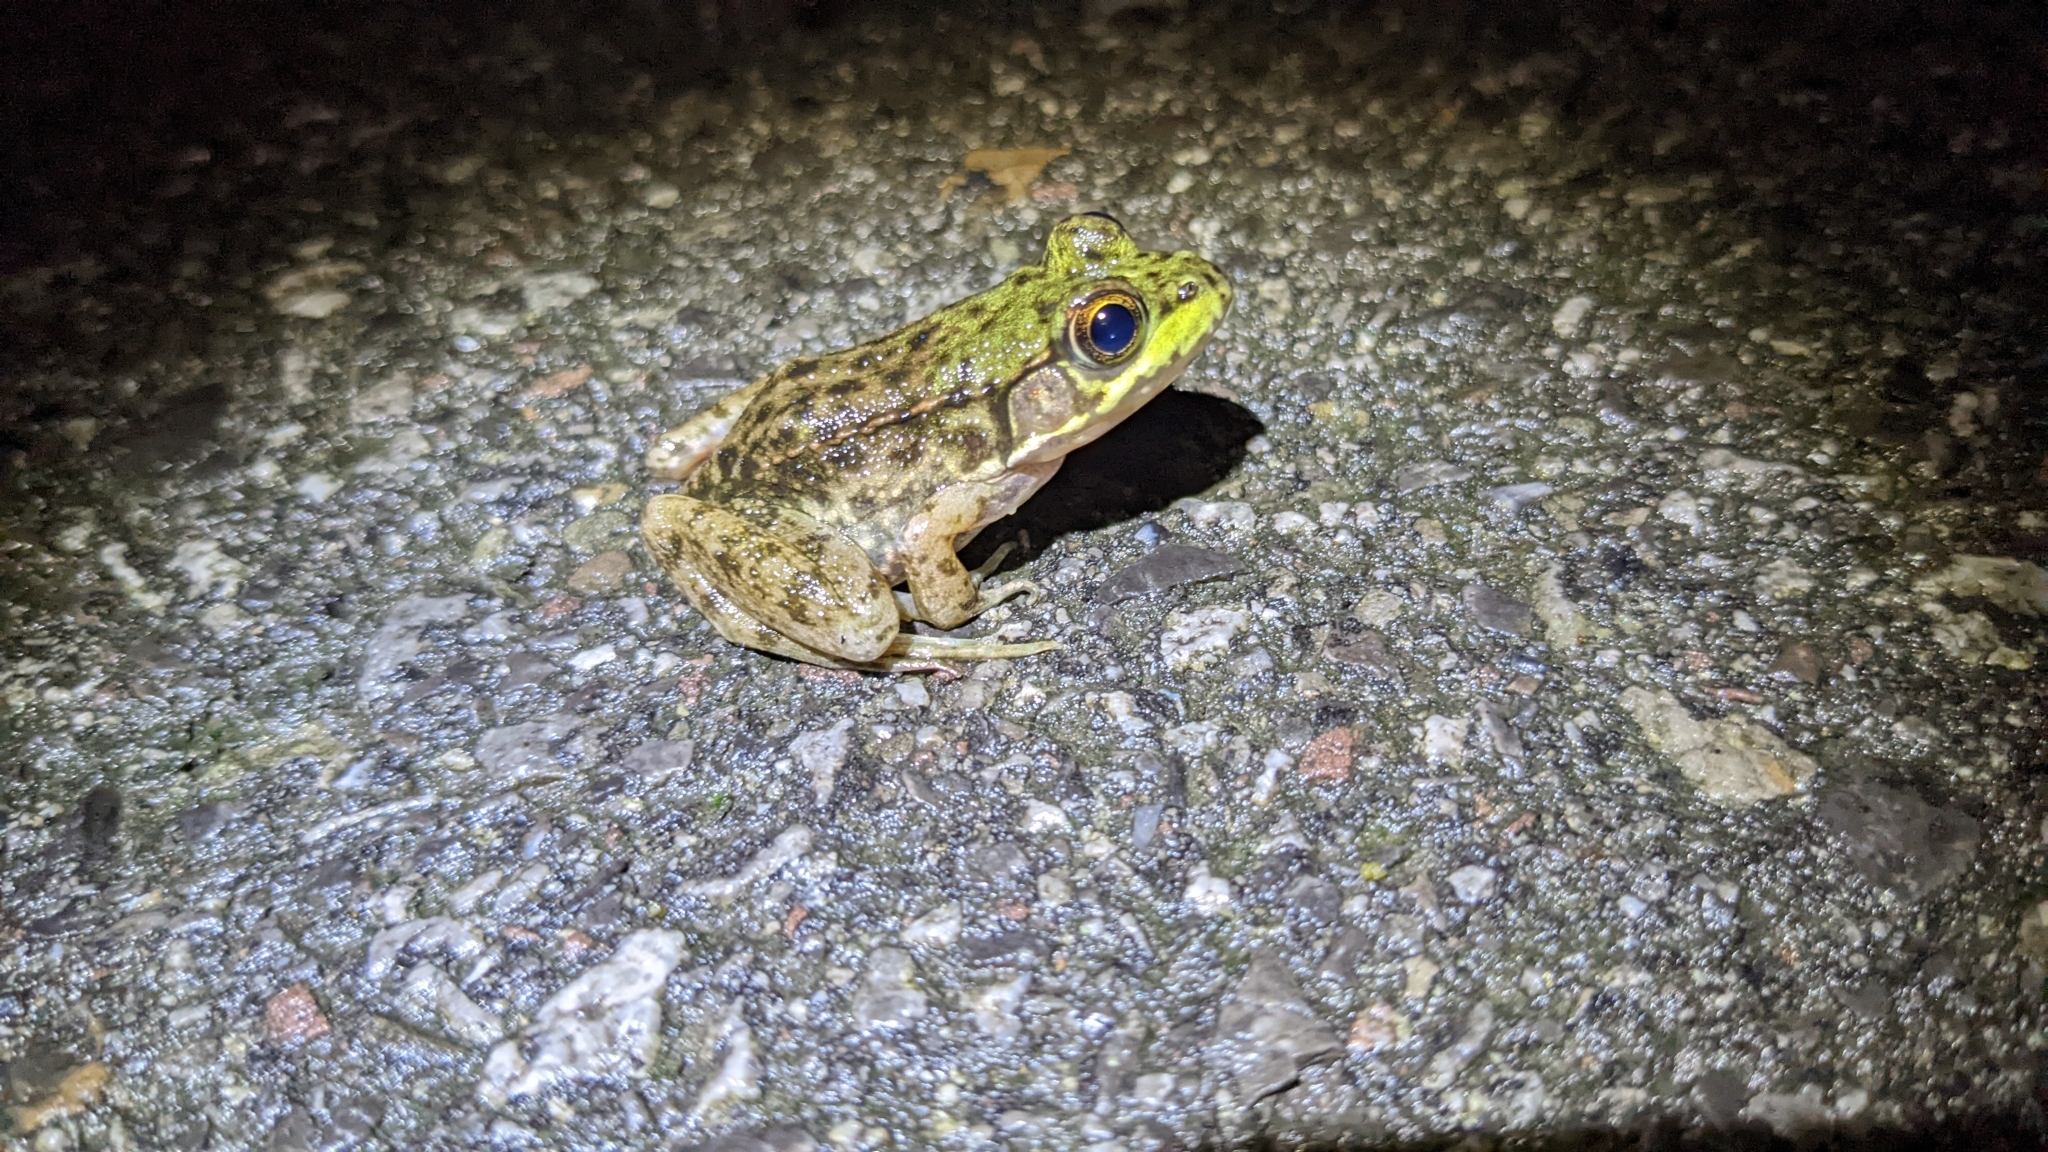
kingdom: Animalia
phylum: Chordata
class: Amphibia
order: Anura
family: Ranidae
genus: Lithobates
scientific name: Lithobates clamitans
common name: Green frog
